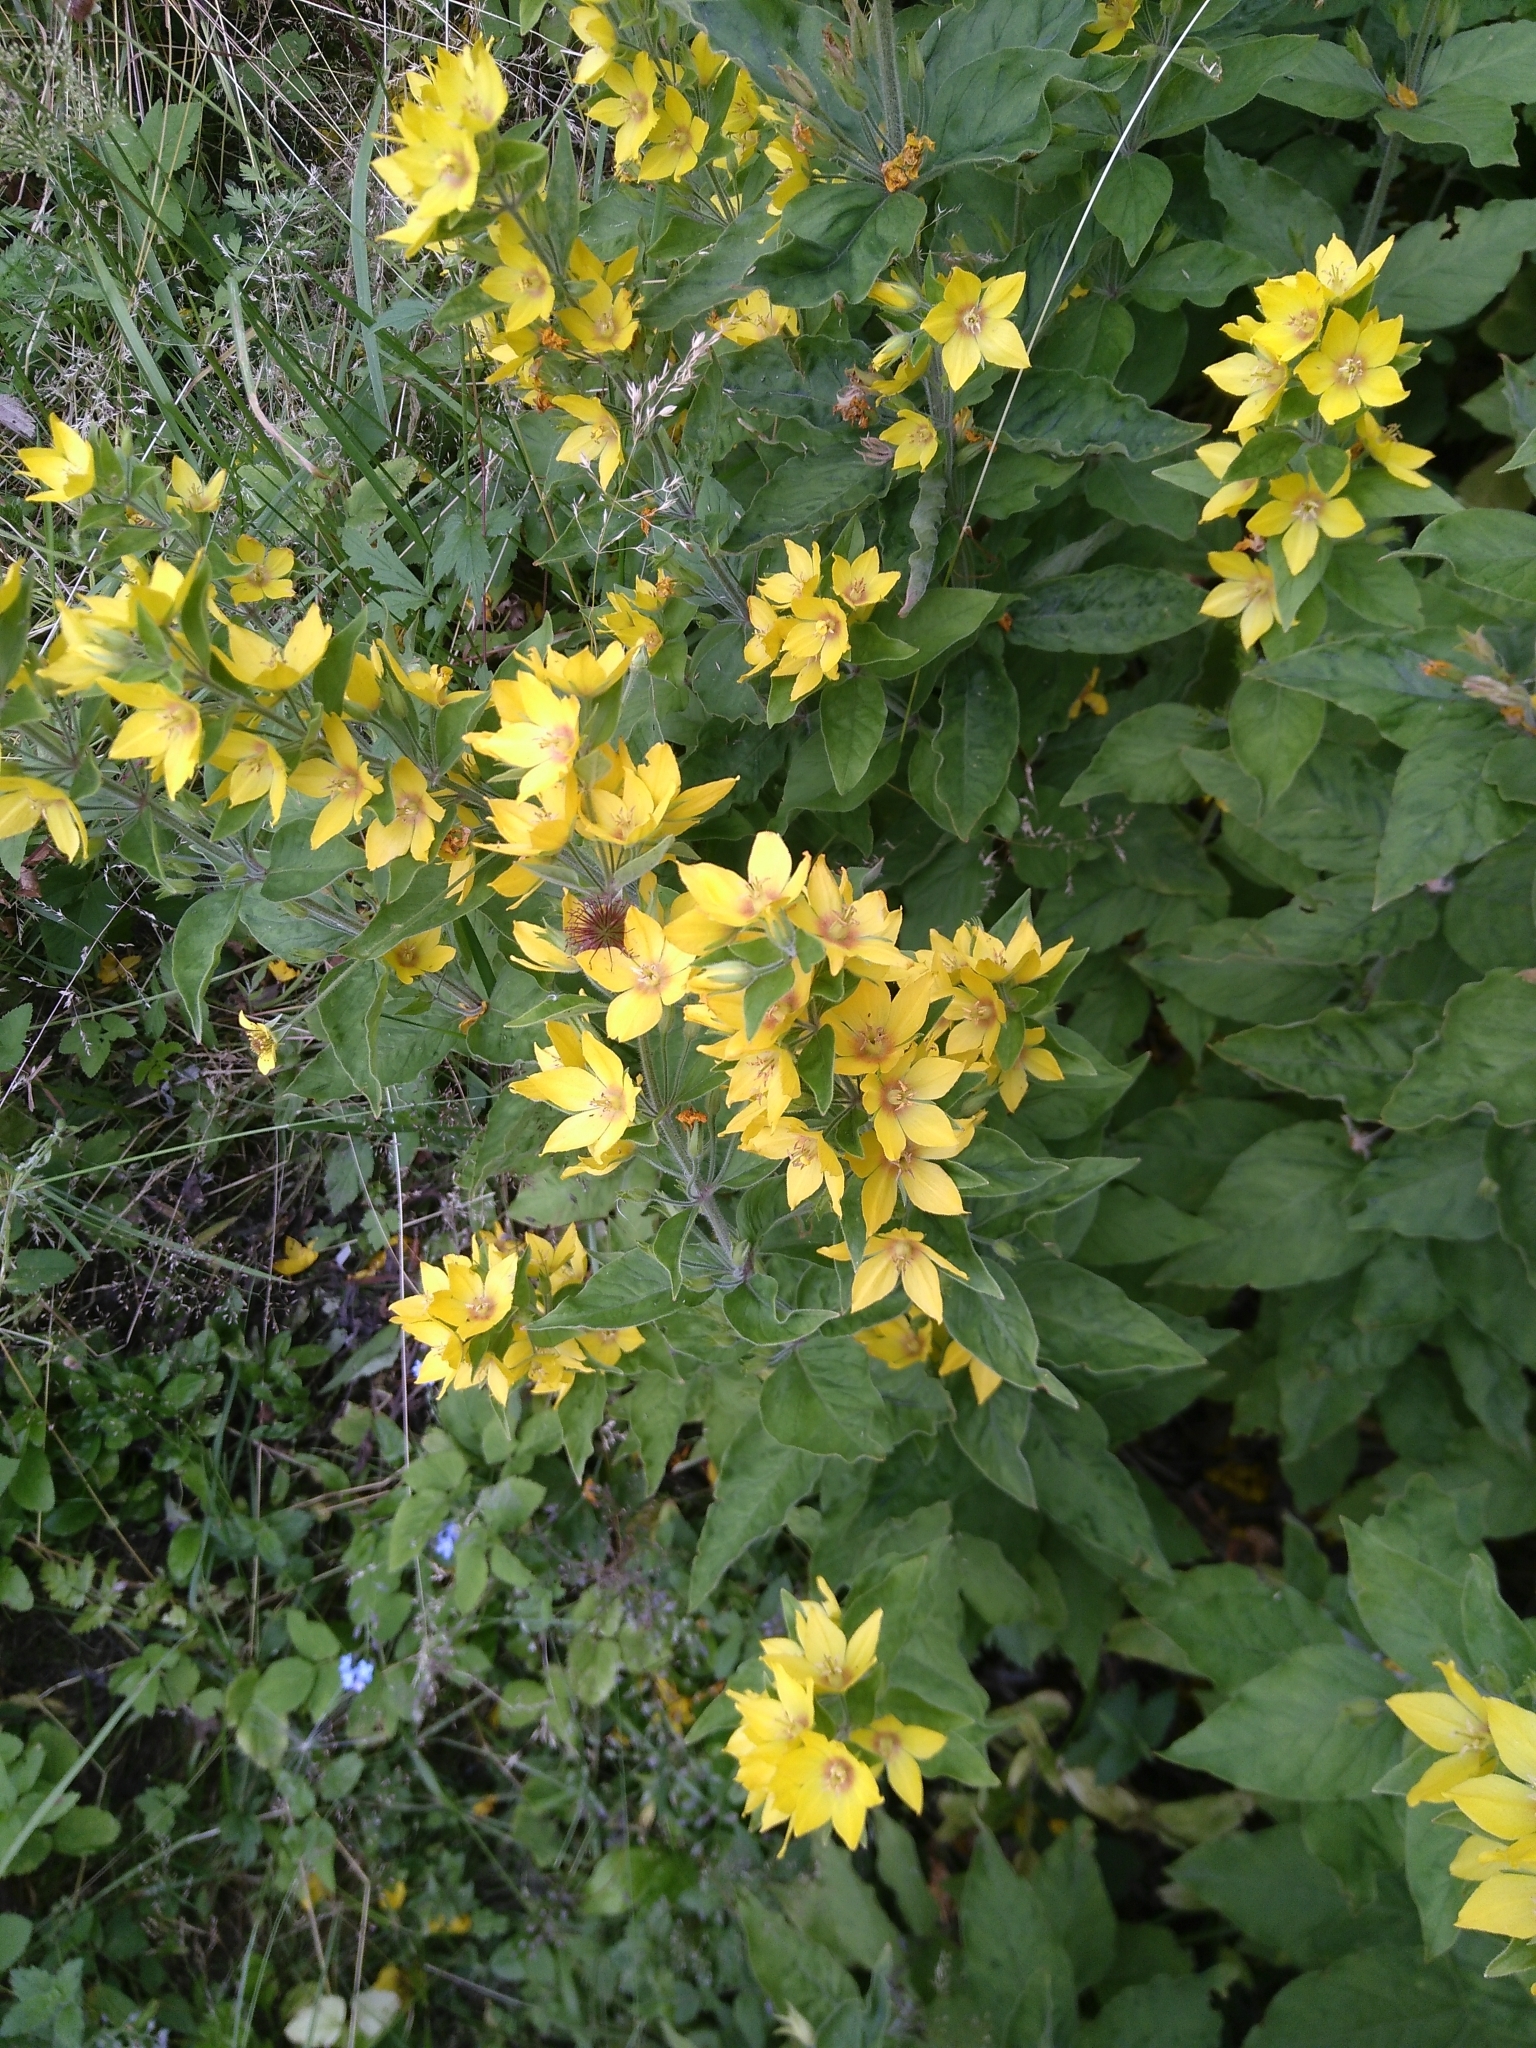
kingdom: Plantae
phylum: Tracheophyta
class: Magnoliopsida
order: Ericales
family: Primulaceae
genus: Lysimachia
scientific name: Lysimachia punctata
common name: Dotted loosestrife
